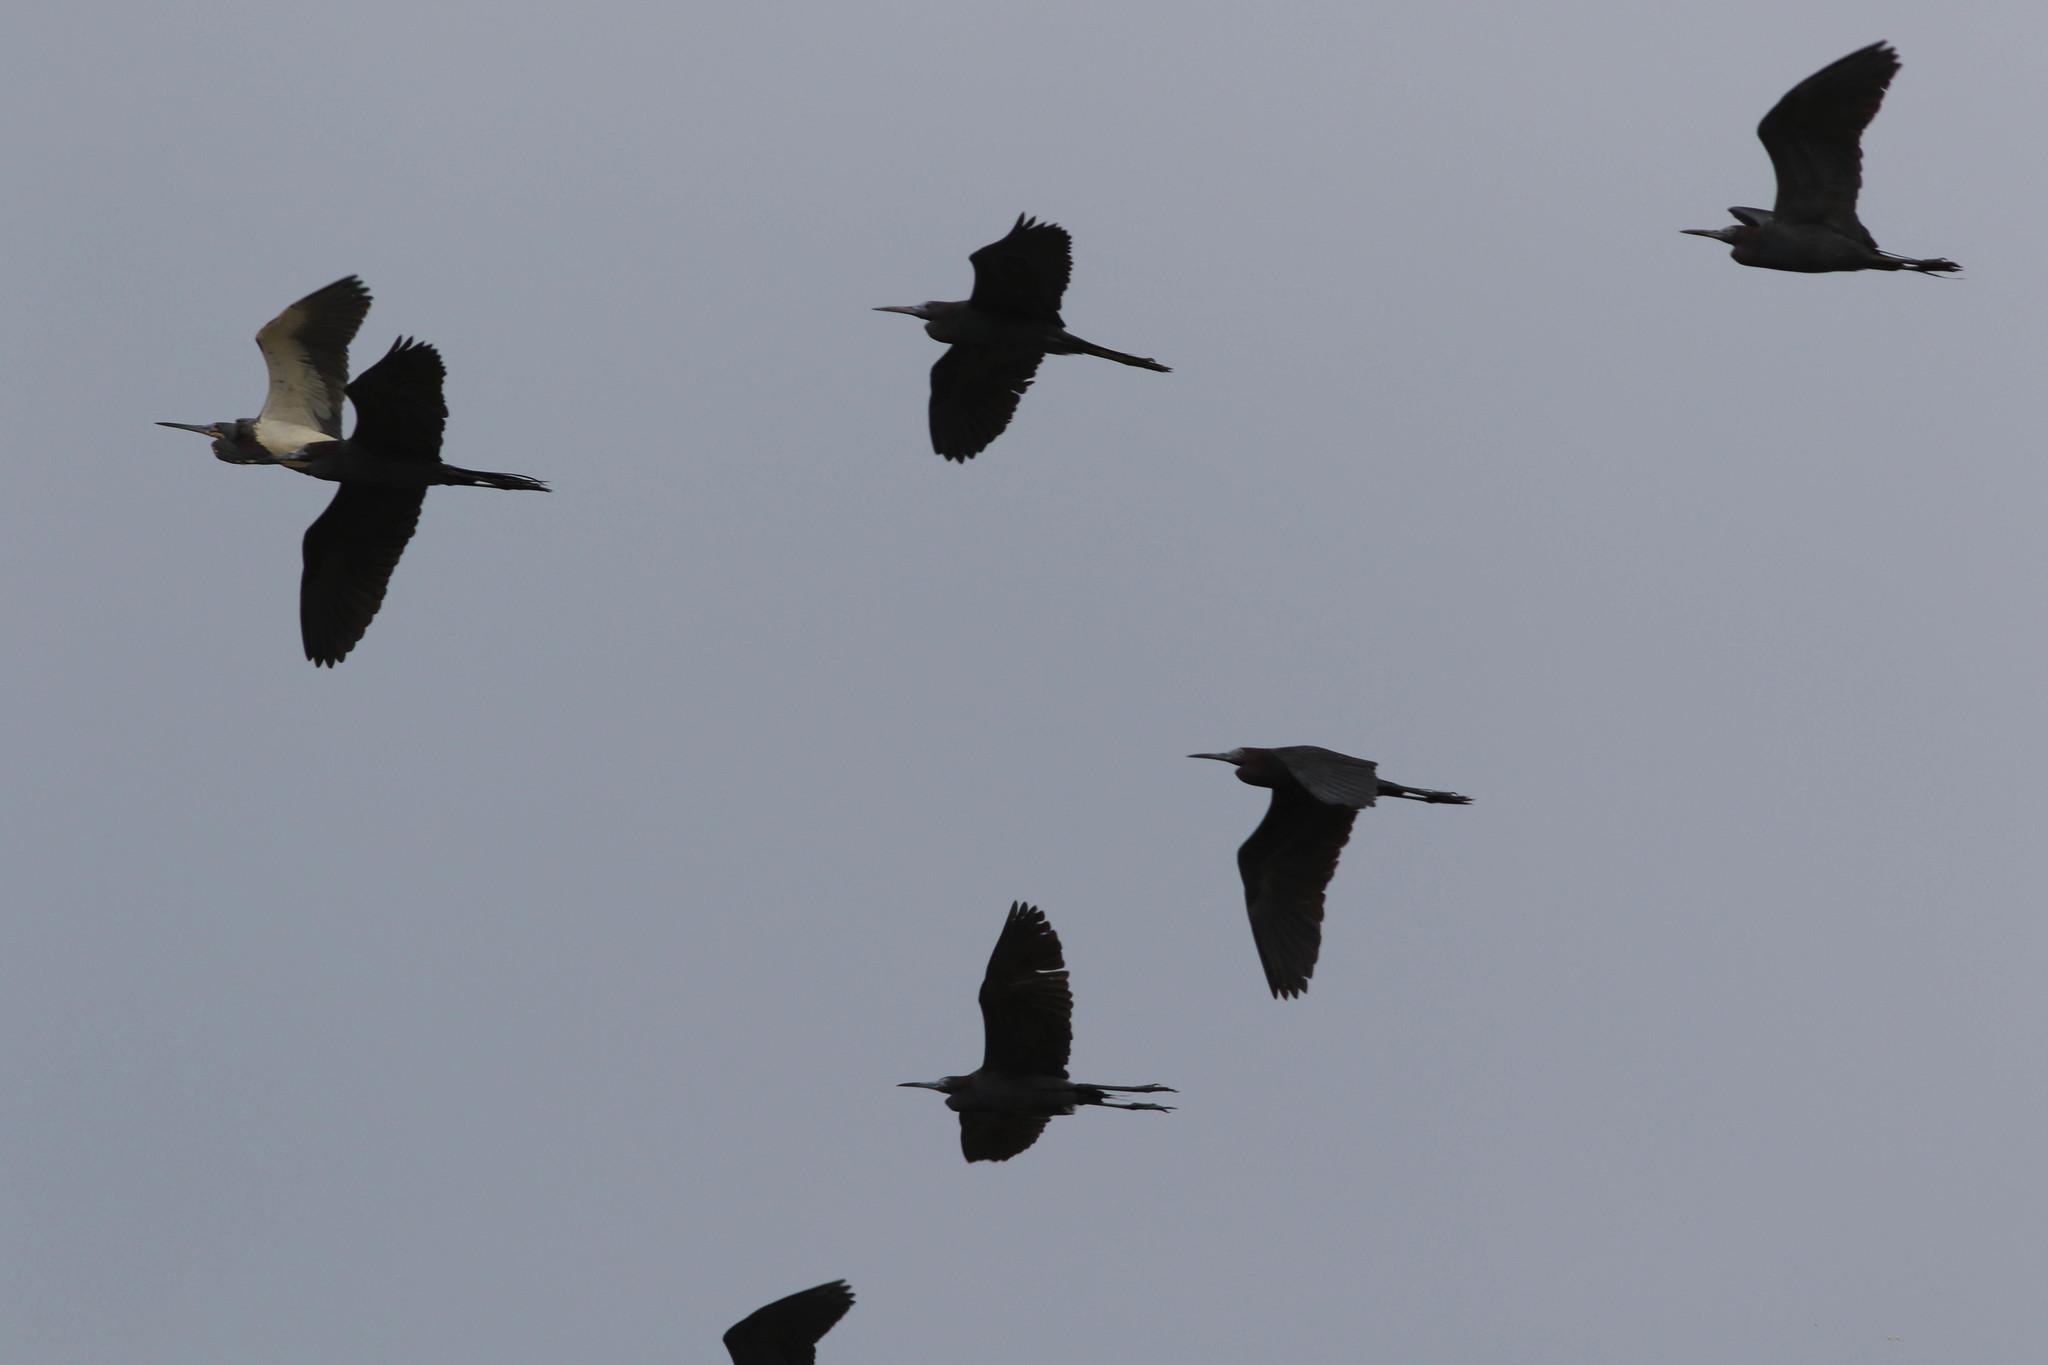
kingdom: Animalia
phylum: Chordata
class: Aves
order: Pelecaniformes
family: Ardeidae
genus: Egretta
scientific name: Egretta caerulea
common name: Little blue heron
